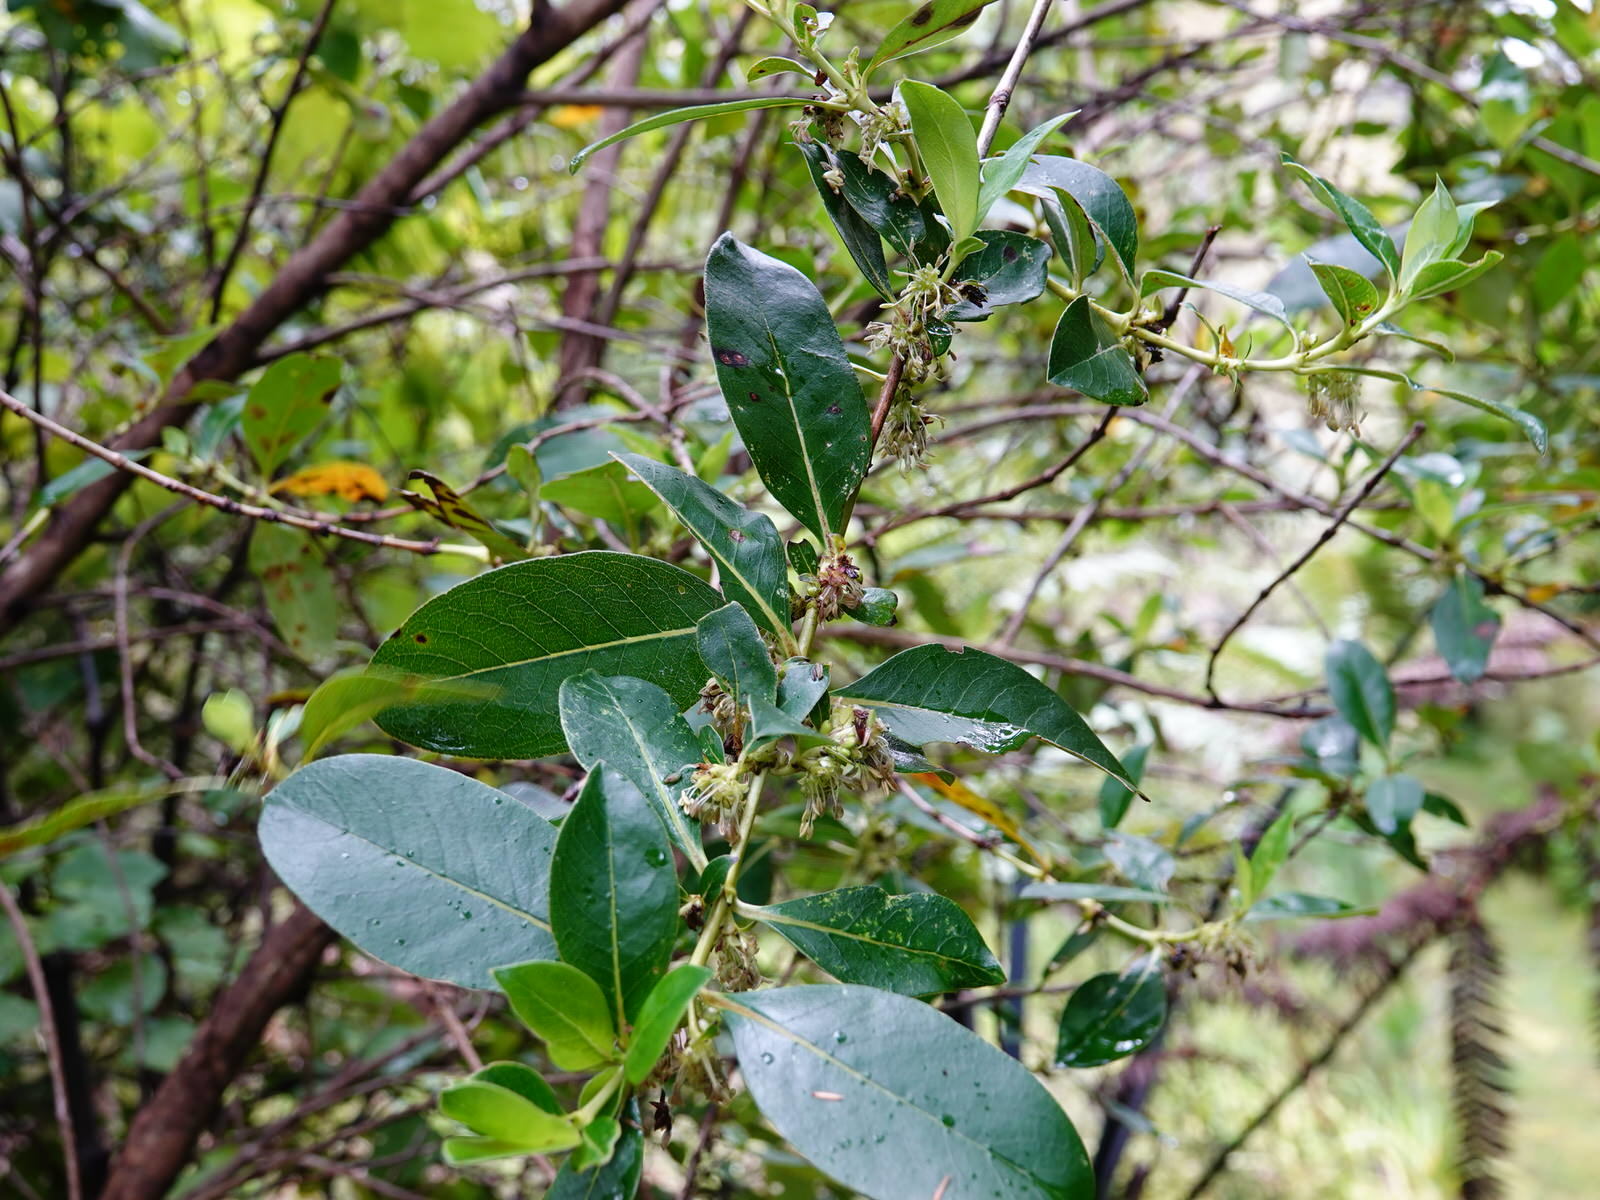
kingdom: Plantae
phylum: Tracheophyta
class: Magnoliopsida
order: Gentianales
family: Rubiaceae
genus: Coprosma
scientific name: Coprosma robusta
